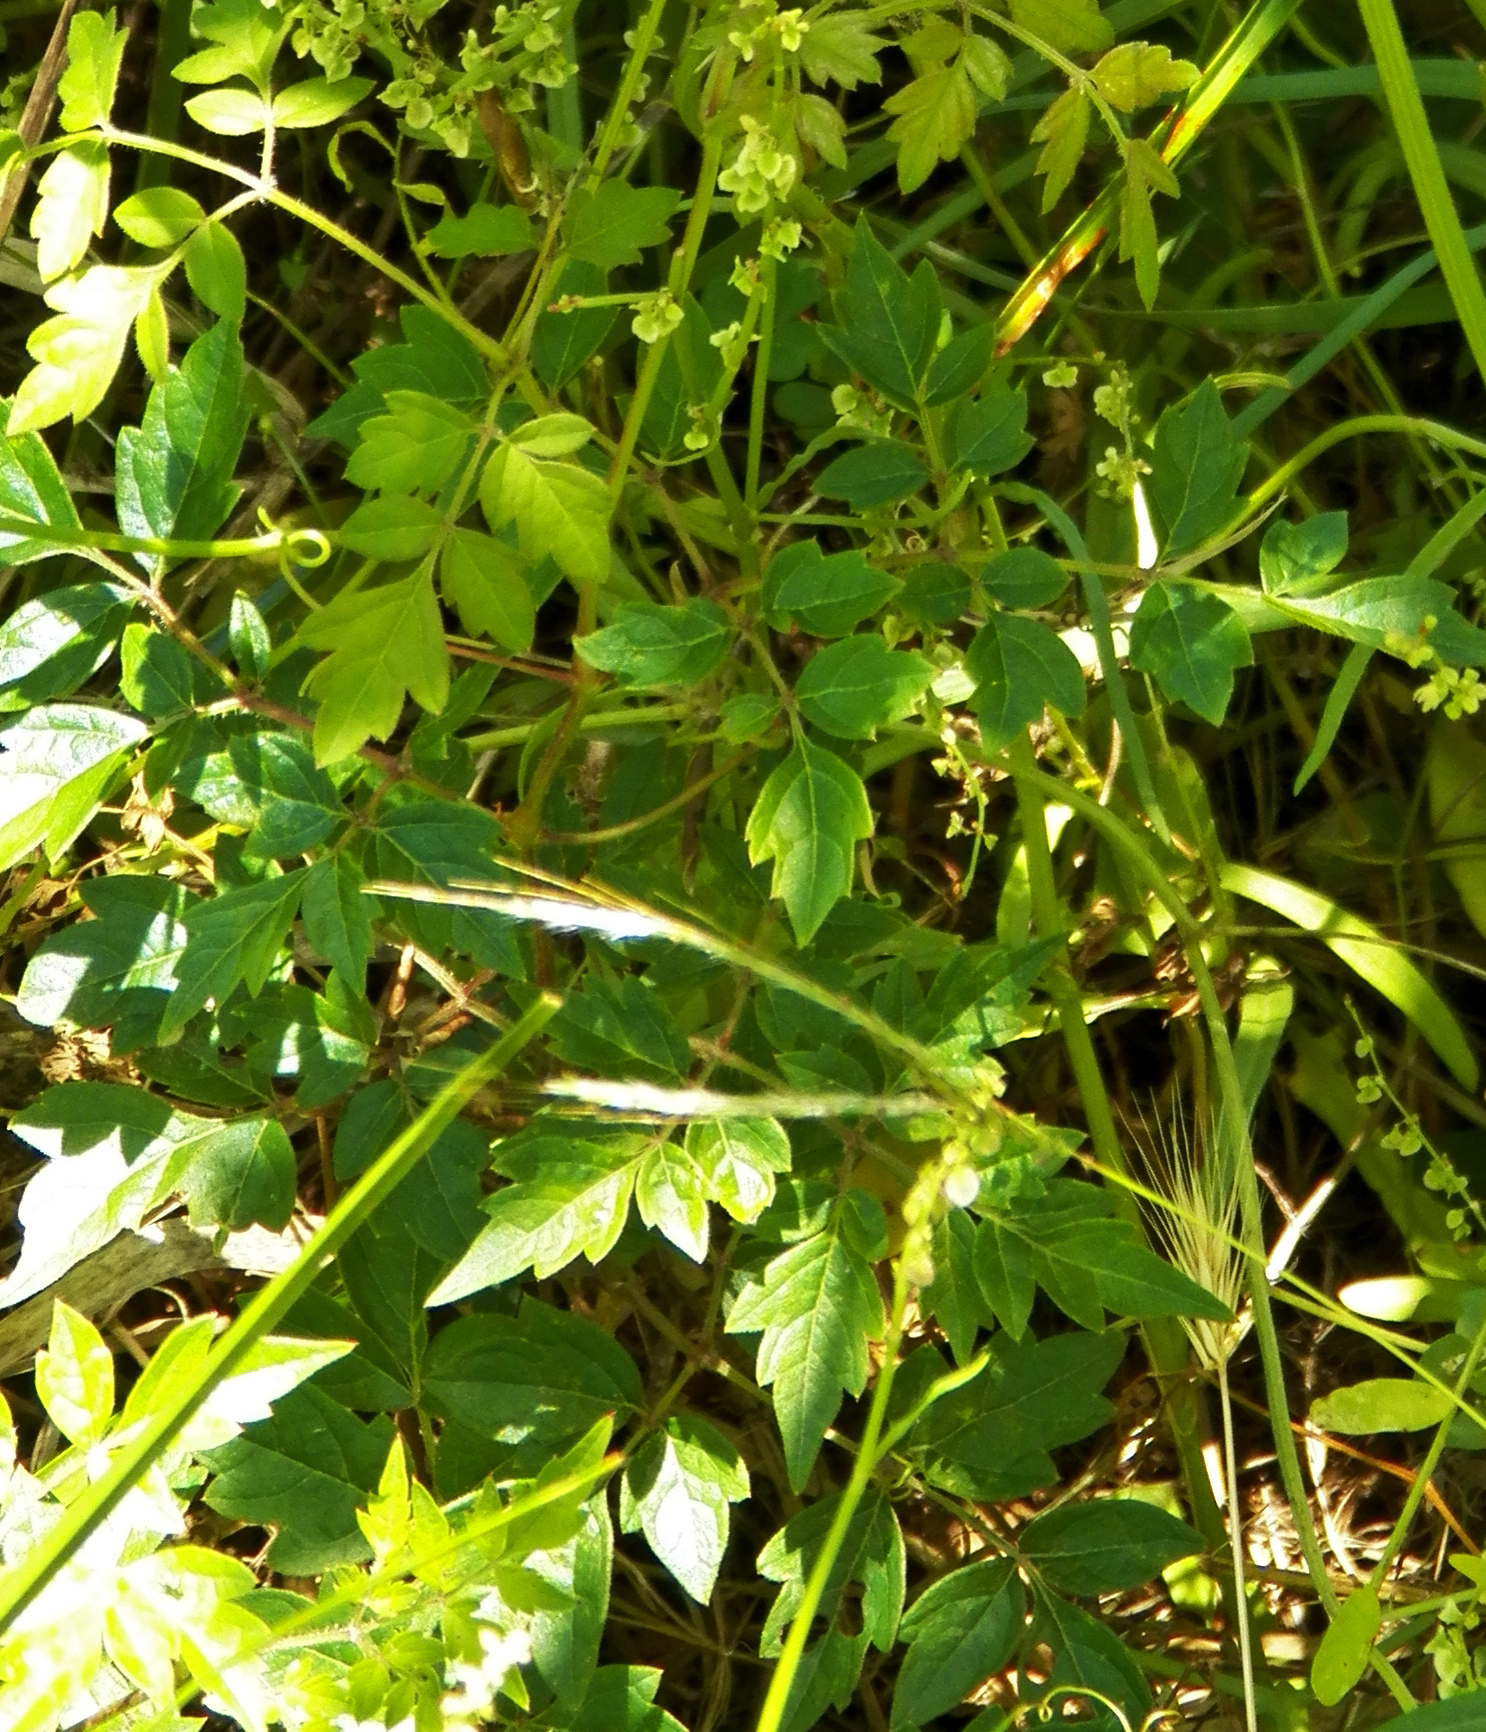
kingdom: Plantae
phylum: Tracheophyta
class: Magnoliopsida
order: Vitales
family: Vitaceae
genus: Nekemias
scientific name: Nekemias arborea
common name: Peppervine
